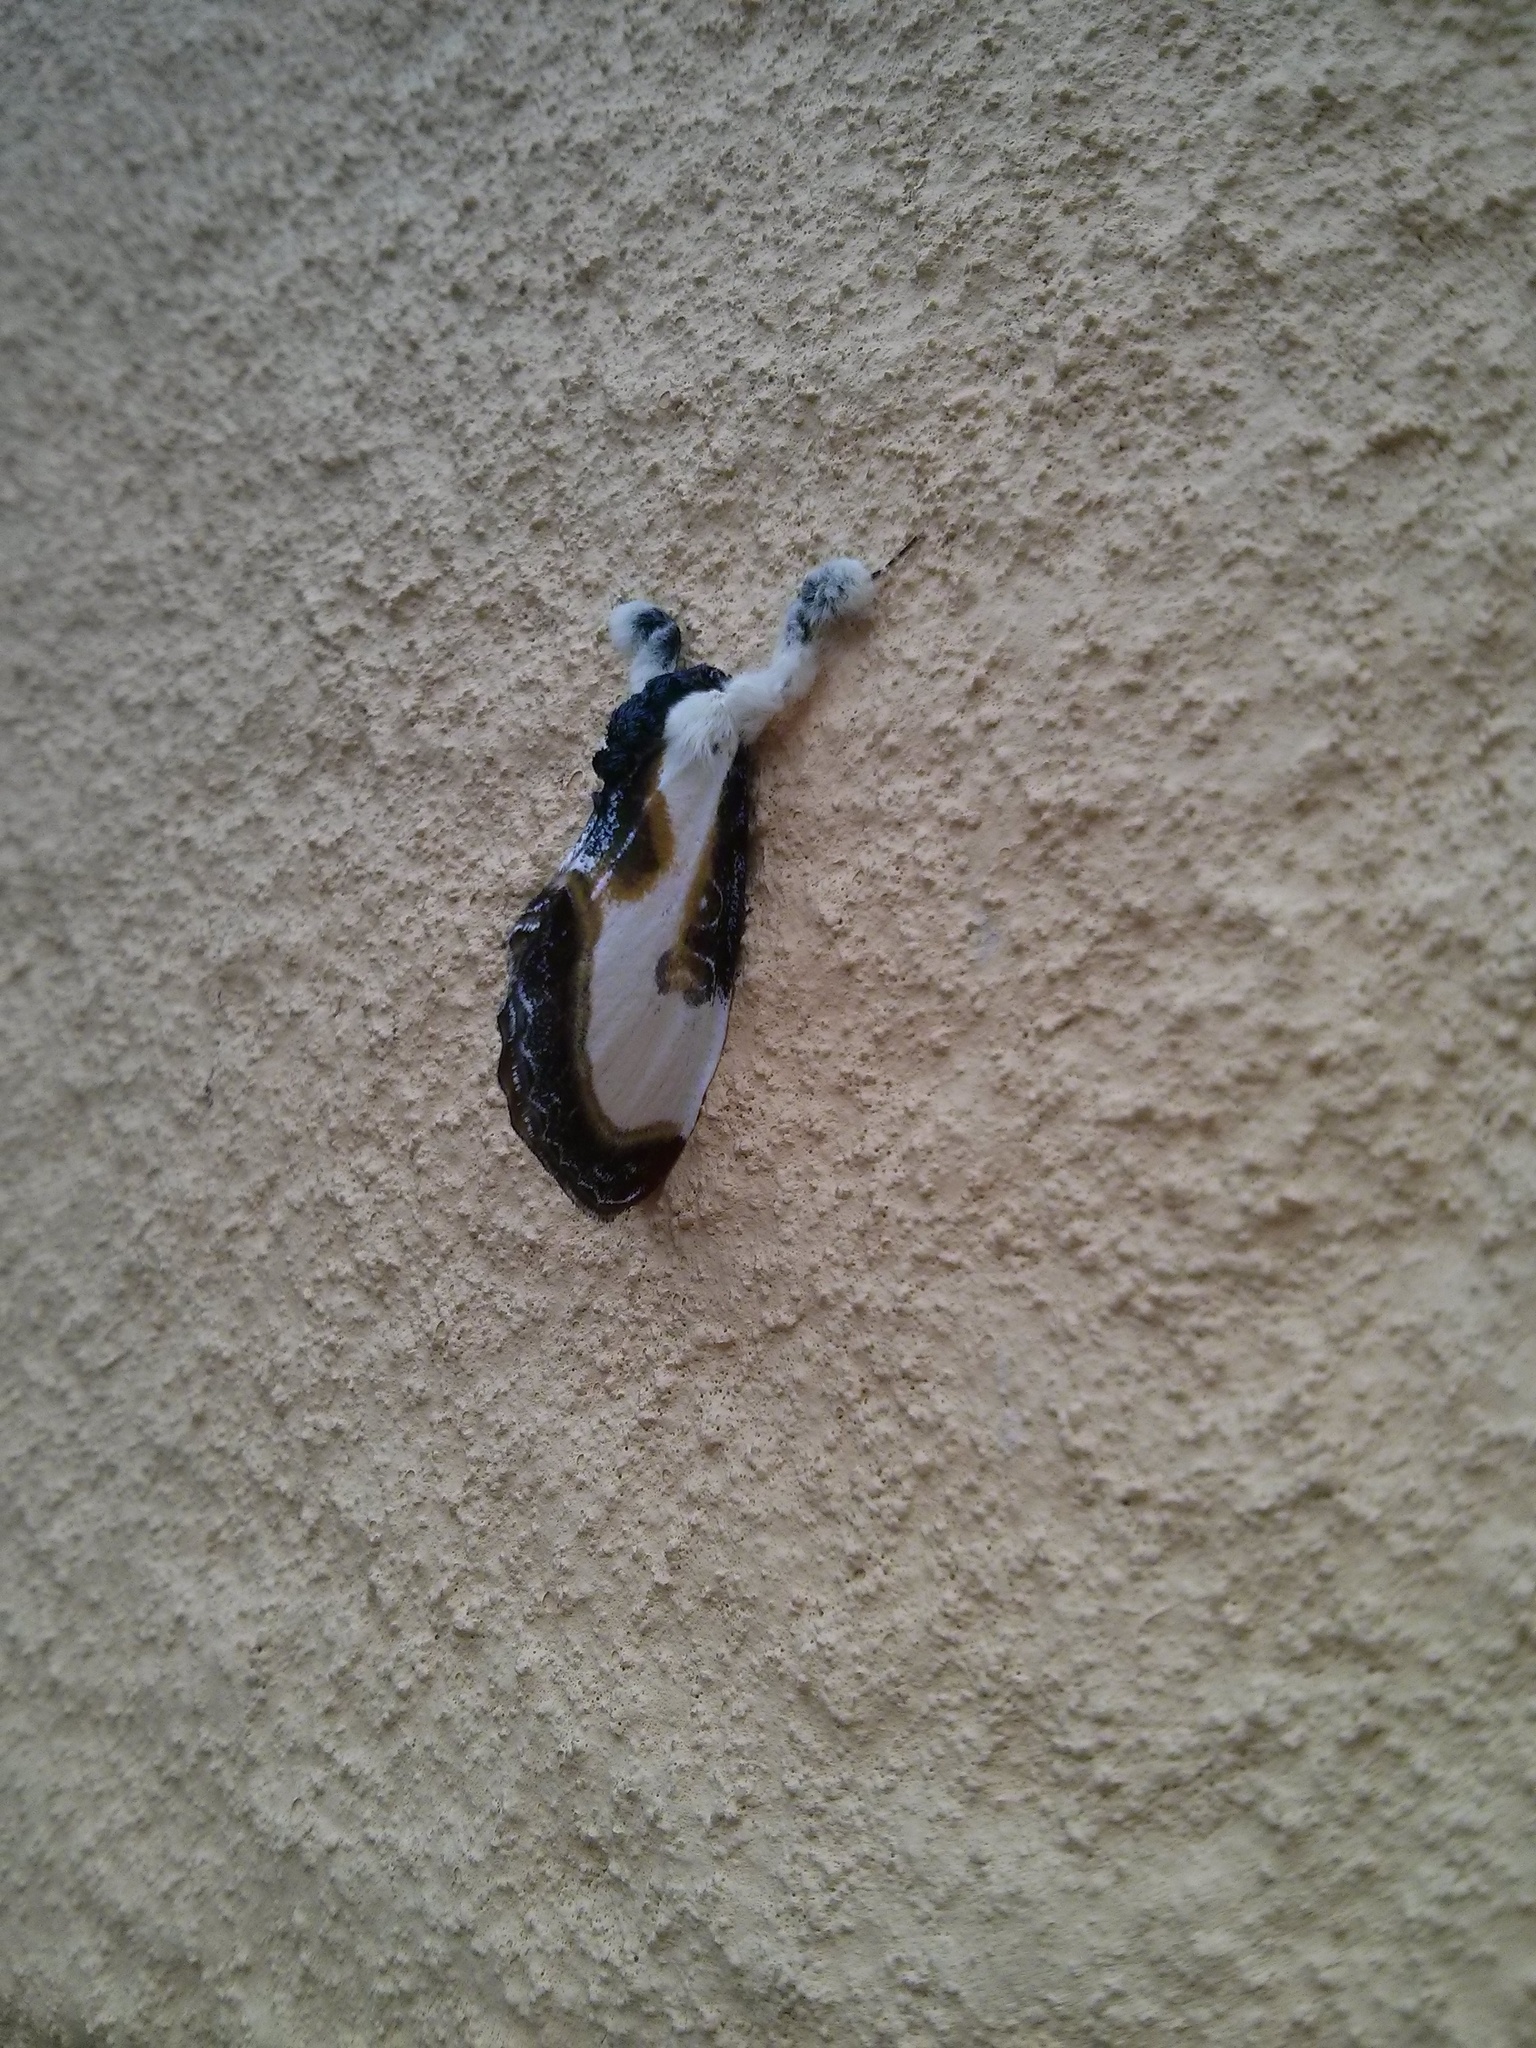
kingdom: Animalia
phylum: Arthropoda
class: Insecta
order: Lepidoptera
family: Noctuidae
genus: Eudryas
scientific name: Eudryas grata
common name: Beautiful wood-nymph
